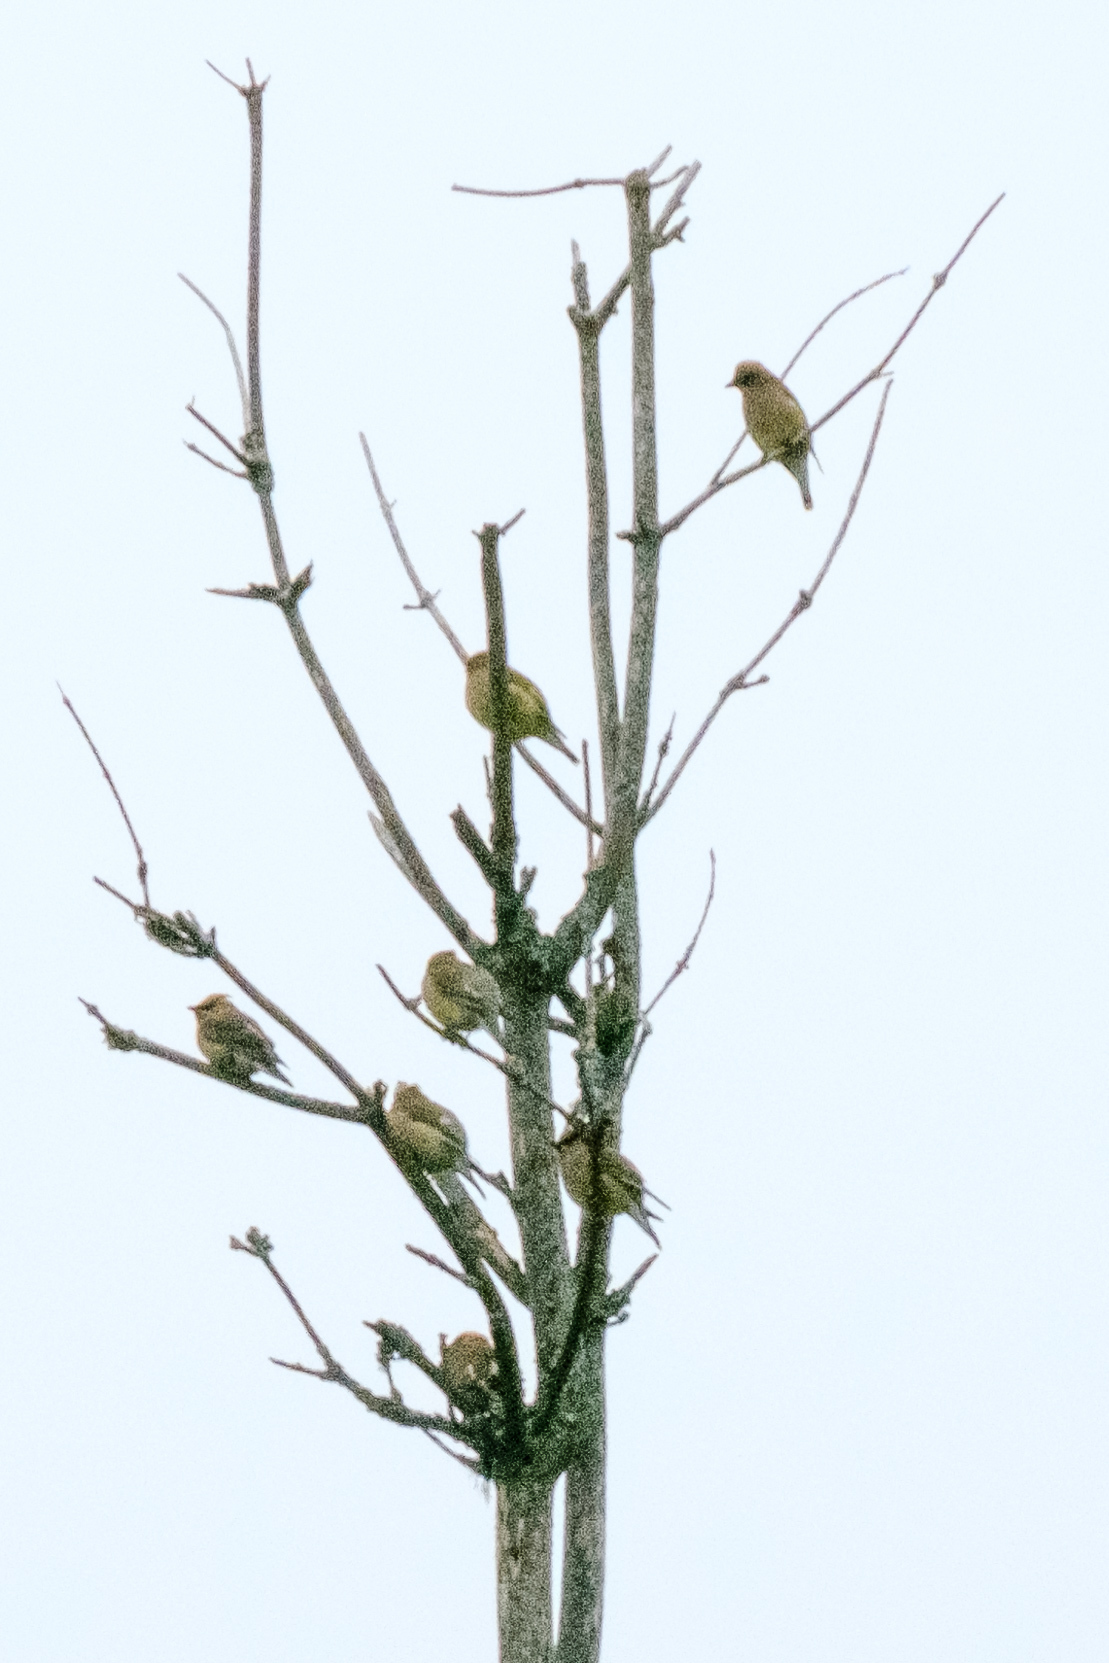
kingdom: Animalia
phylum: Chordata
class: Aves
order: Passeriformes
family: Bombycillidae
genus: Bombycilla
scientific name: Bombycilla cedrorum
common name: Cedar waxwing
